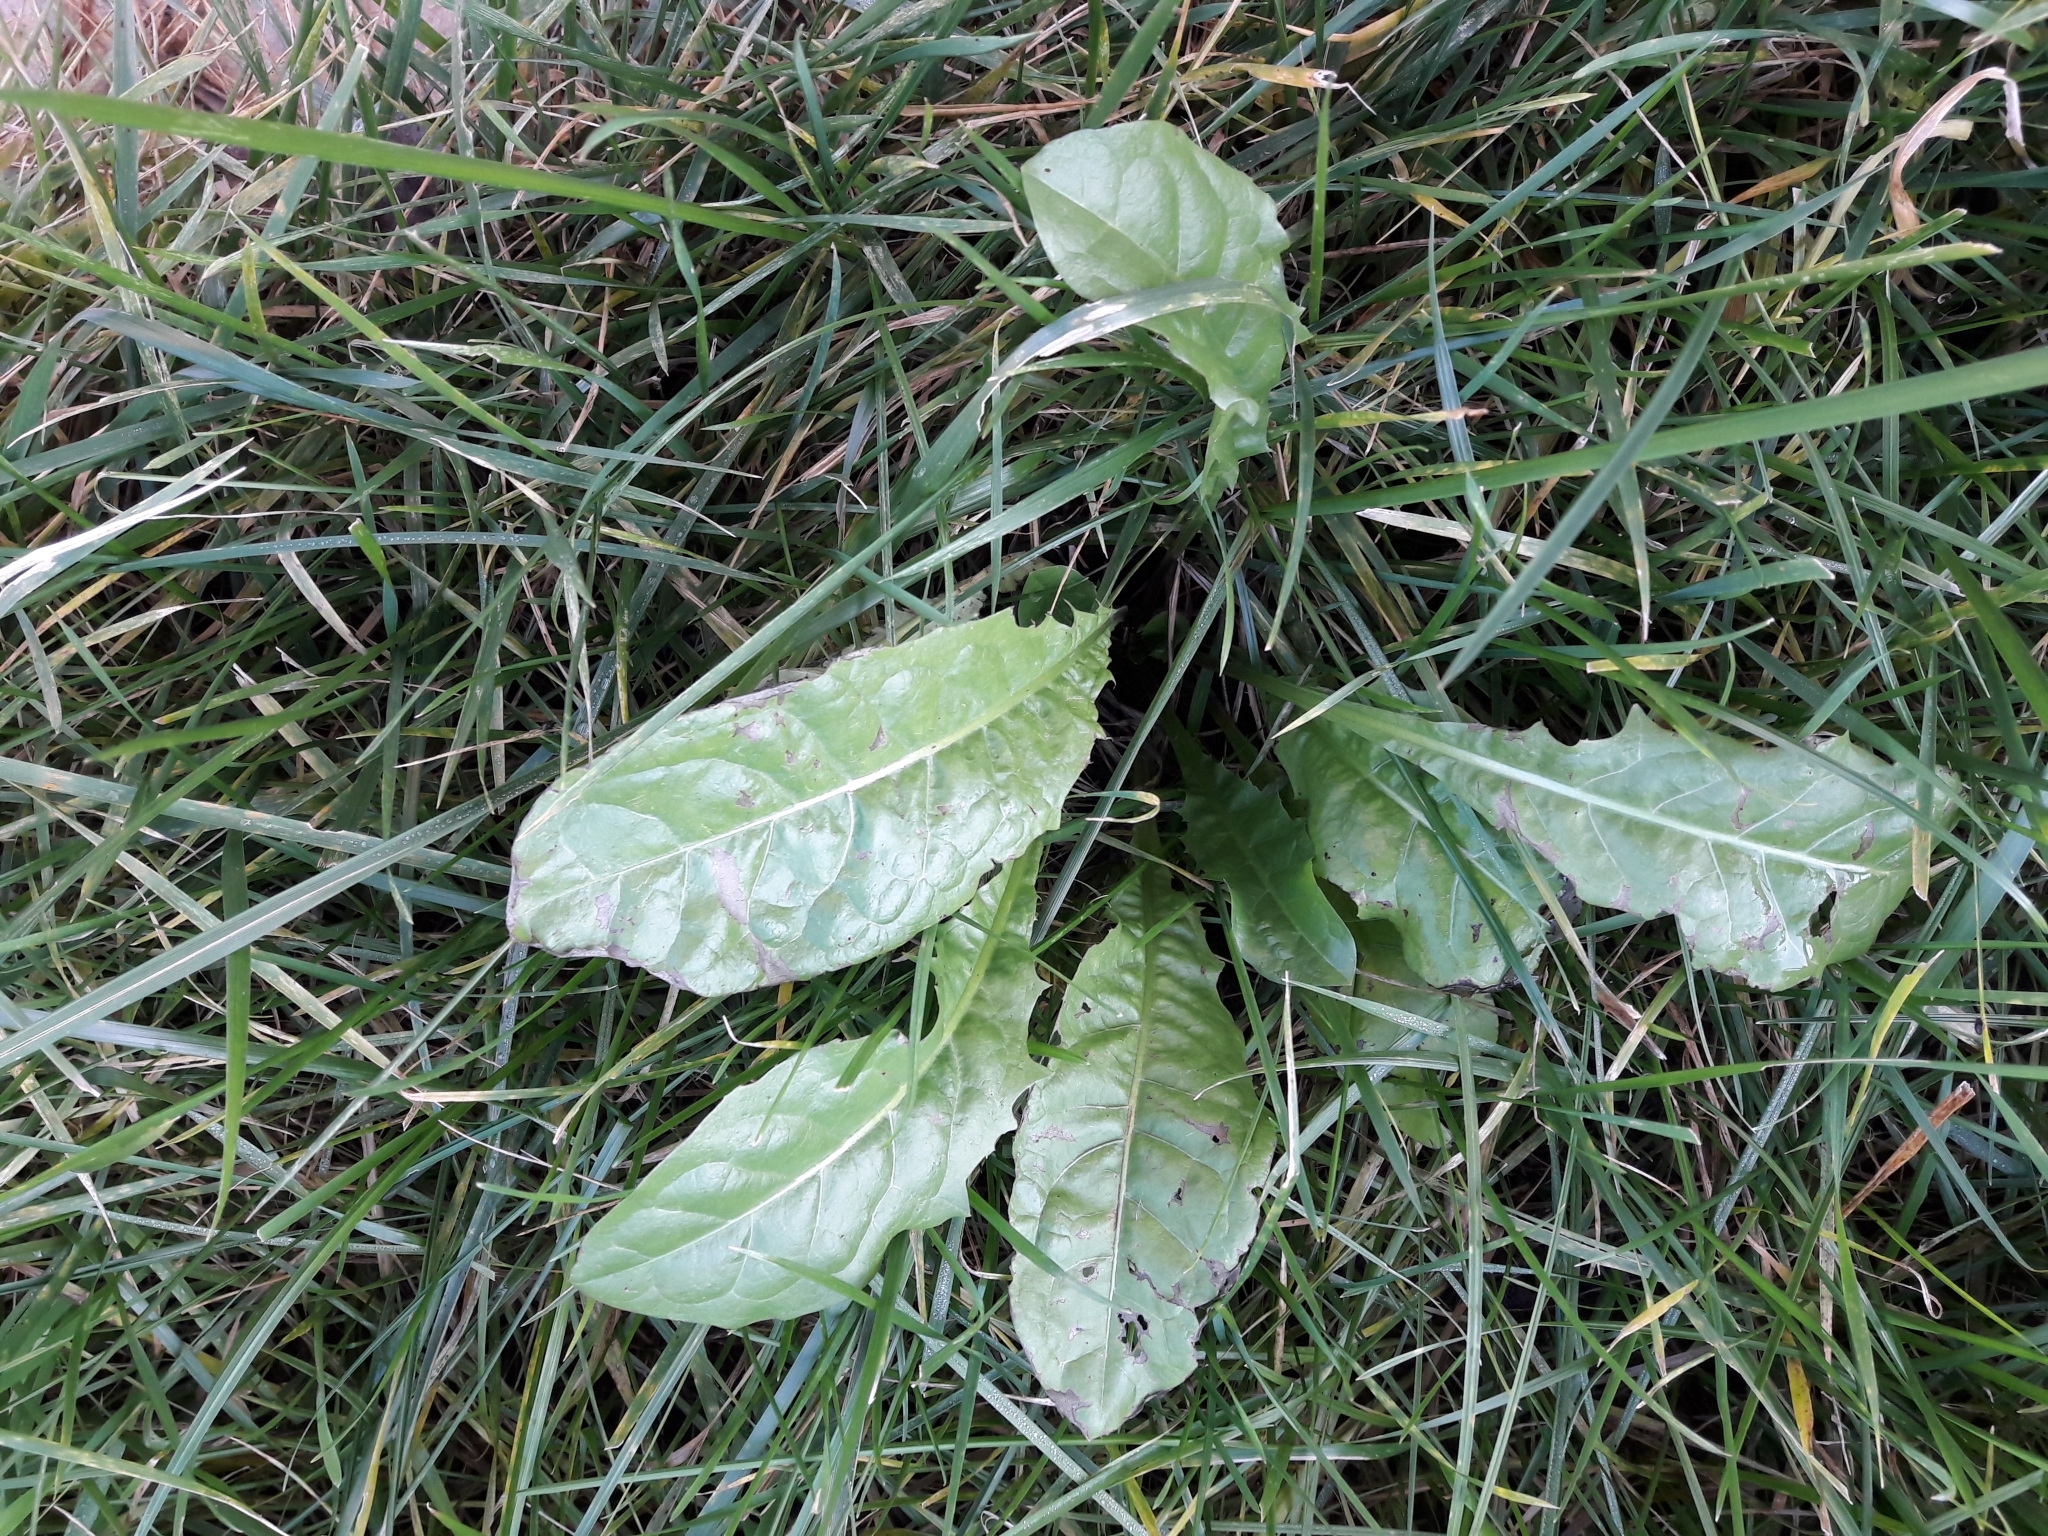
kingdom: Plantae
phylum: Tracheophyta
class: Magnoliopsida
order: Asterales
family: Asteraceae
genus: Taraxacum
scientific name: Taraxacum officinale
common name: Common dandelion
